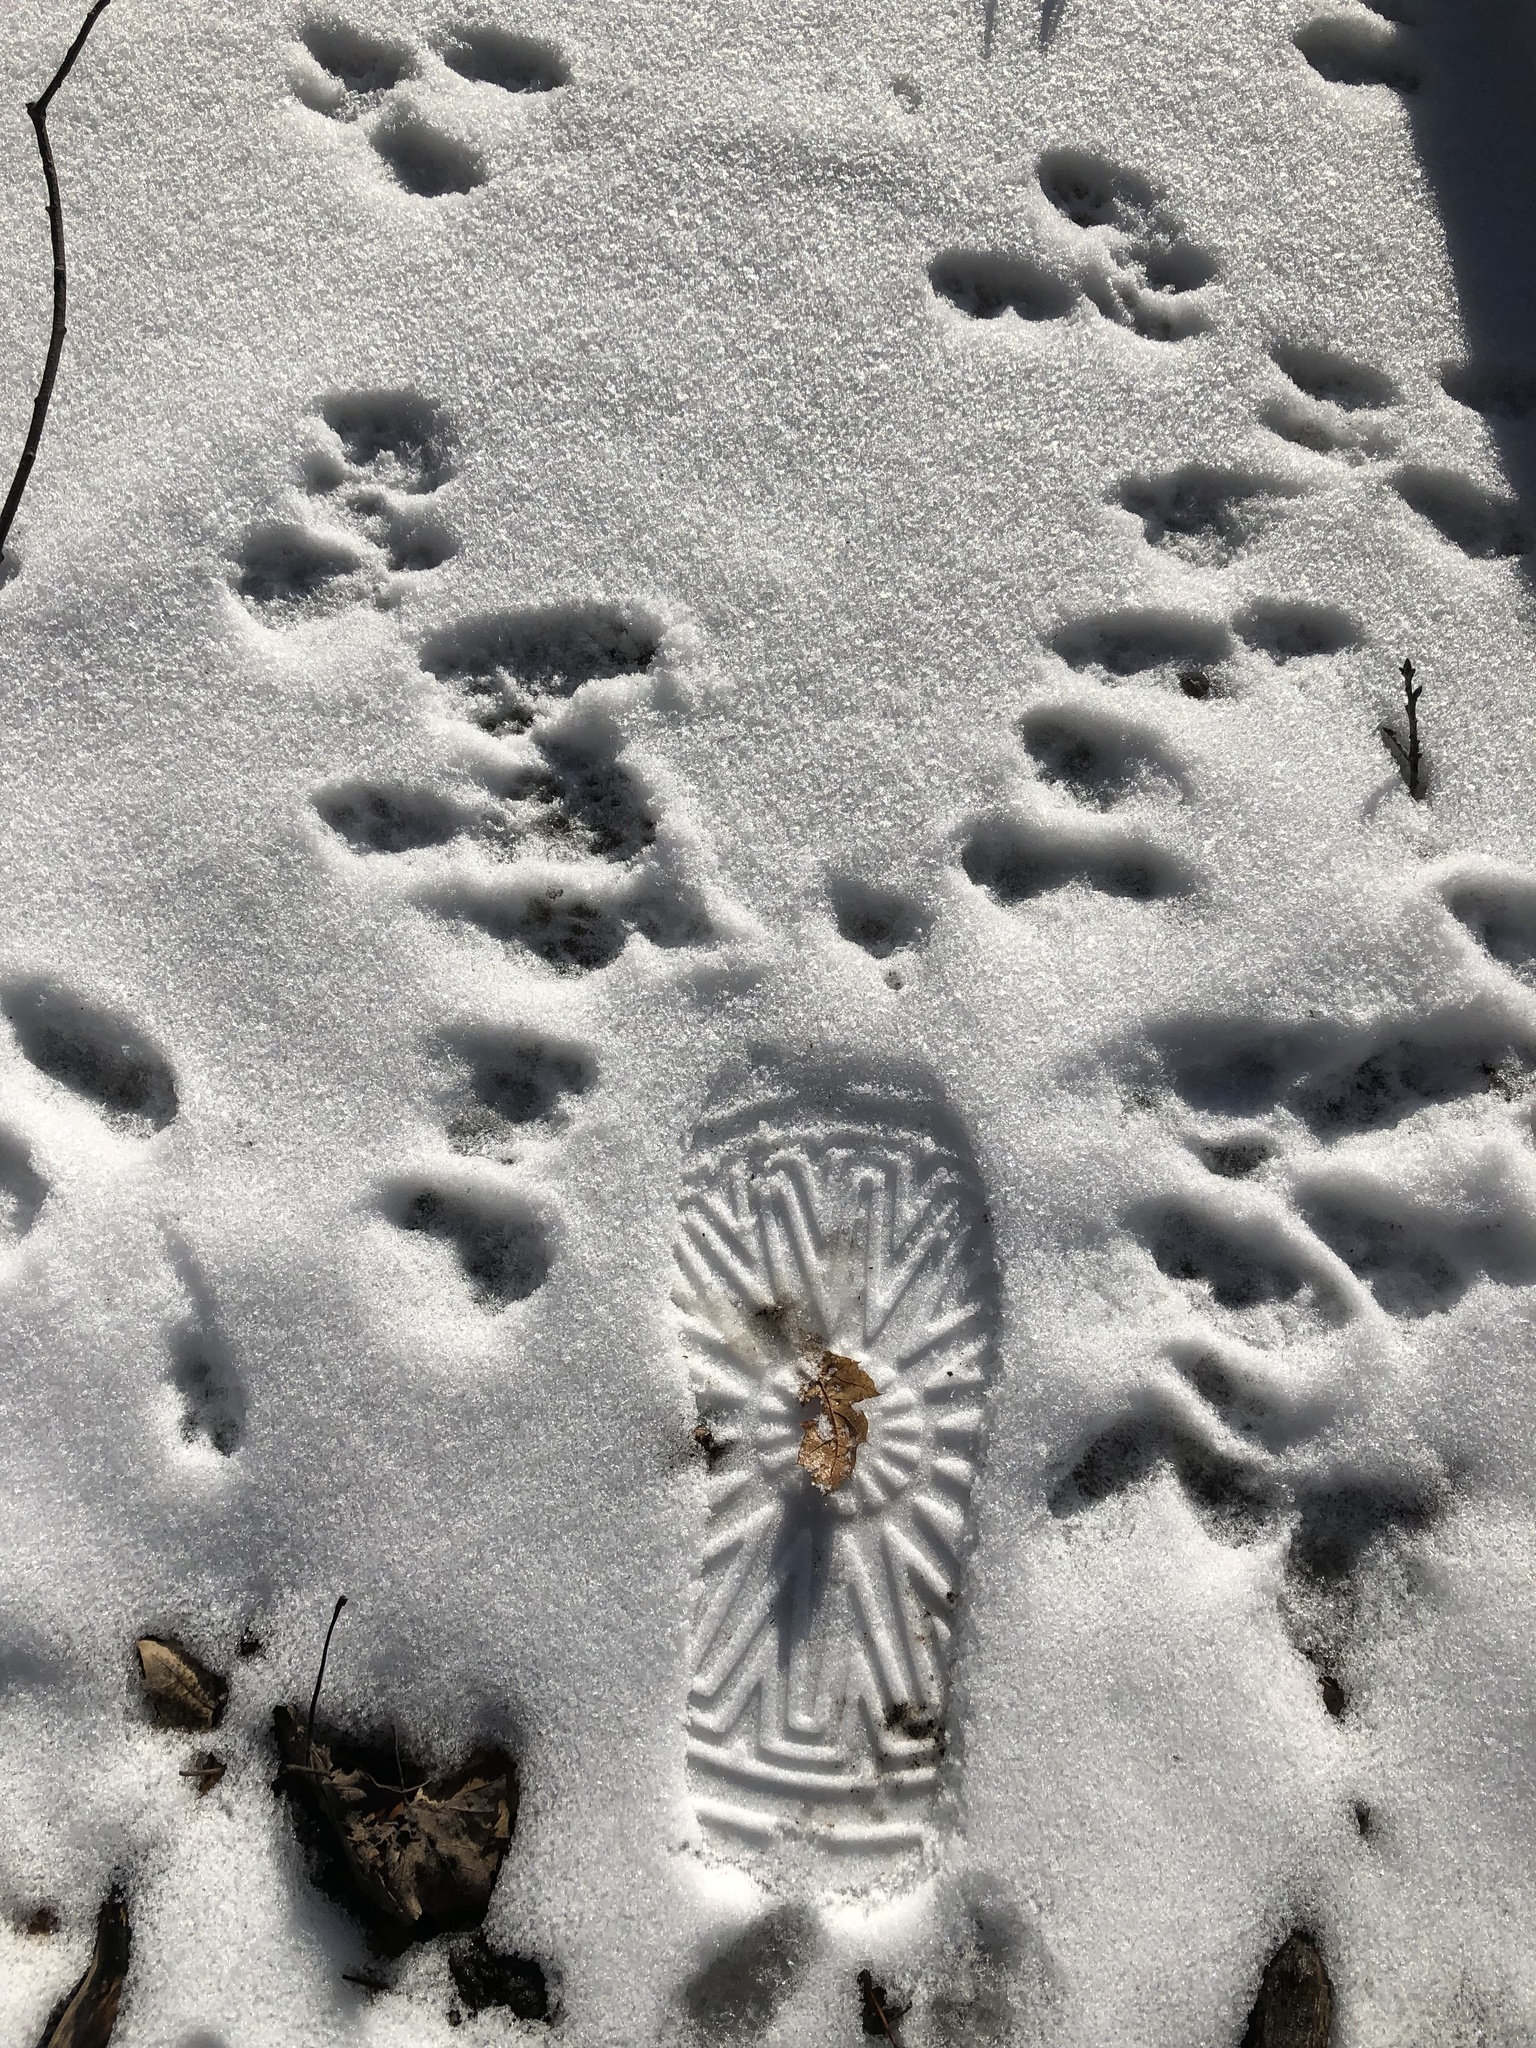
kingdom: Animalia
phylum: Chordata
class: Mammalia
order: Rodentia
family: Sciuridae
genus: Sciurus
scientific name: Sciurus carolinensis
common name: Eastern gray squirrel
